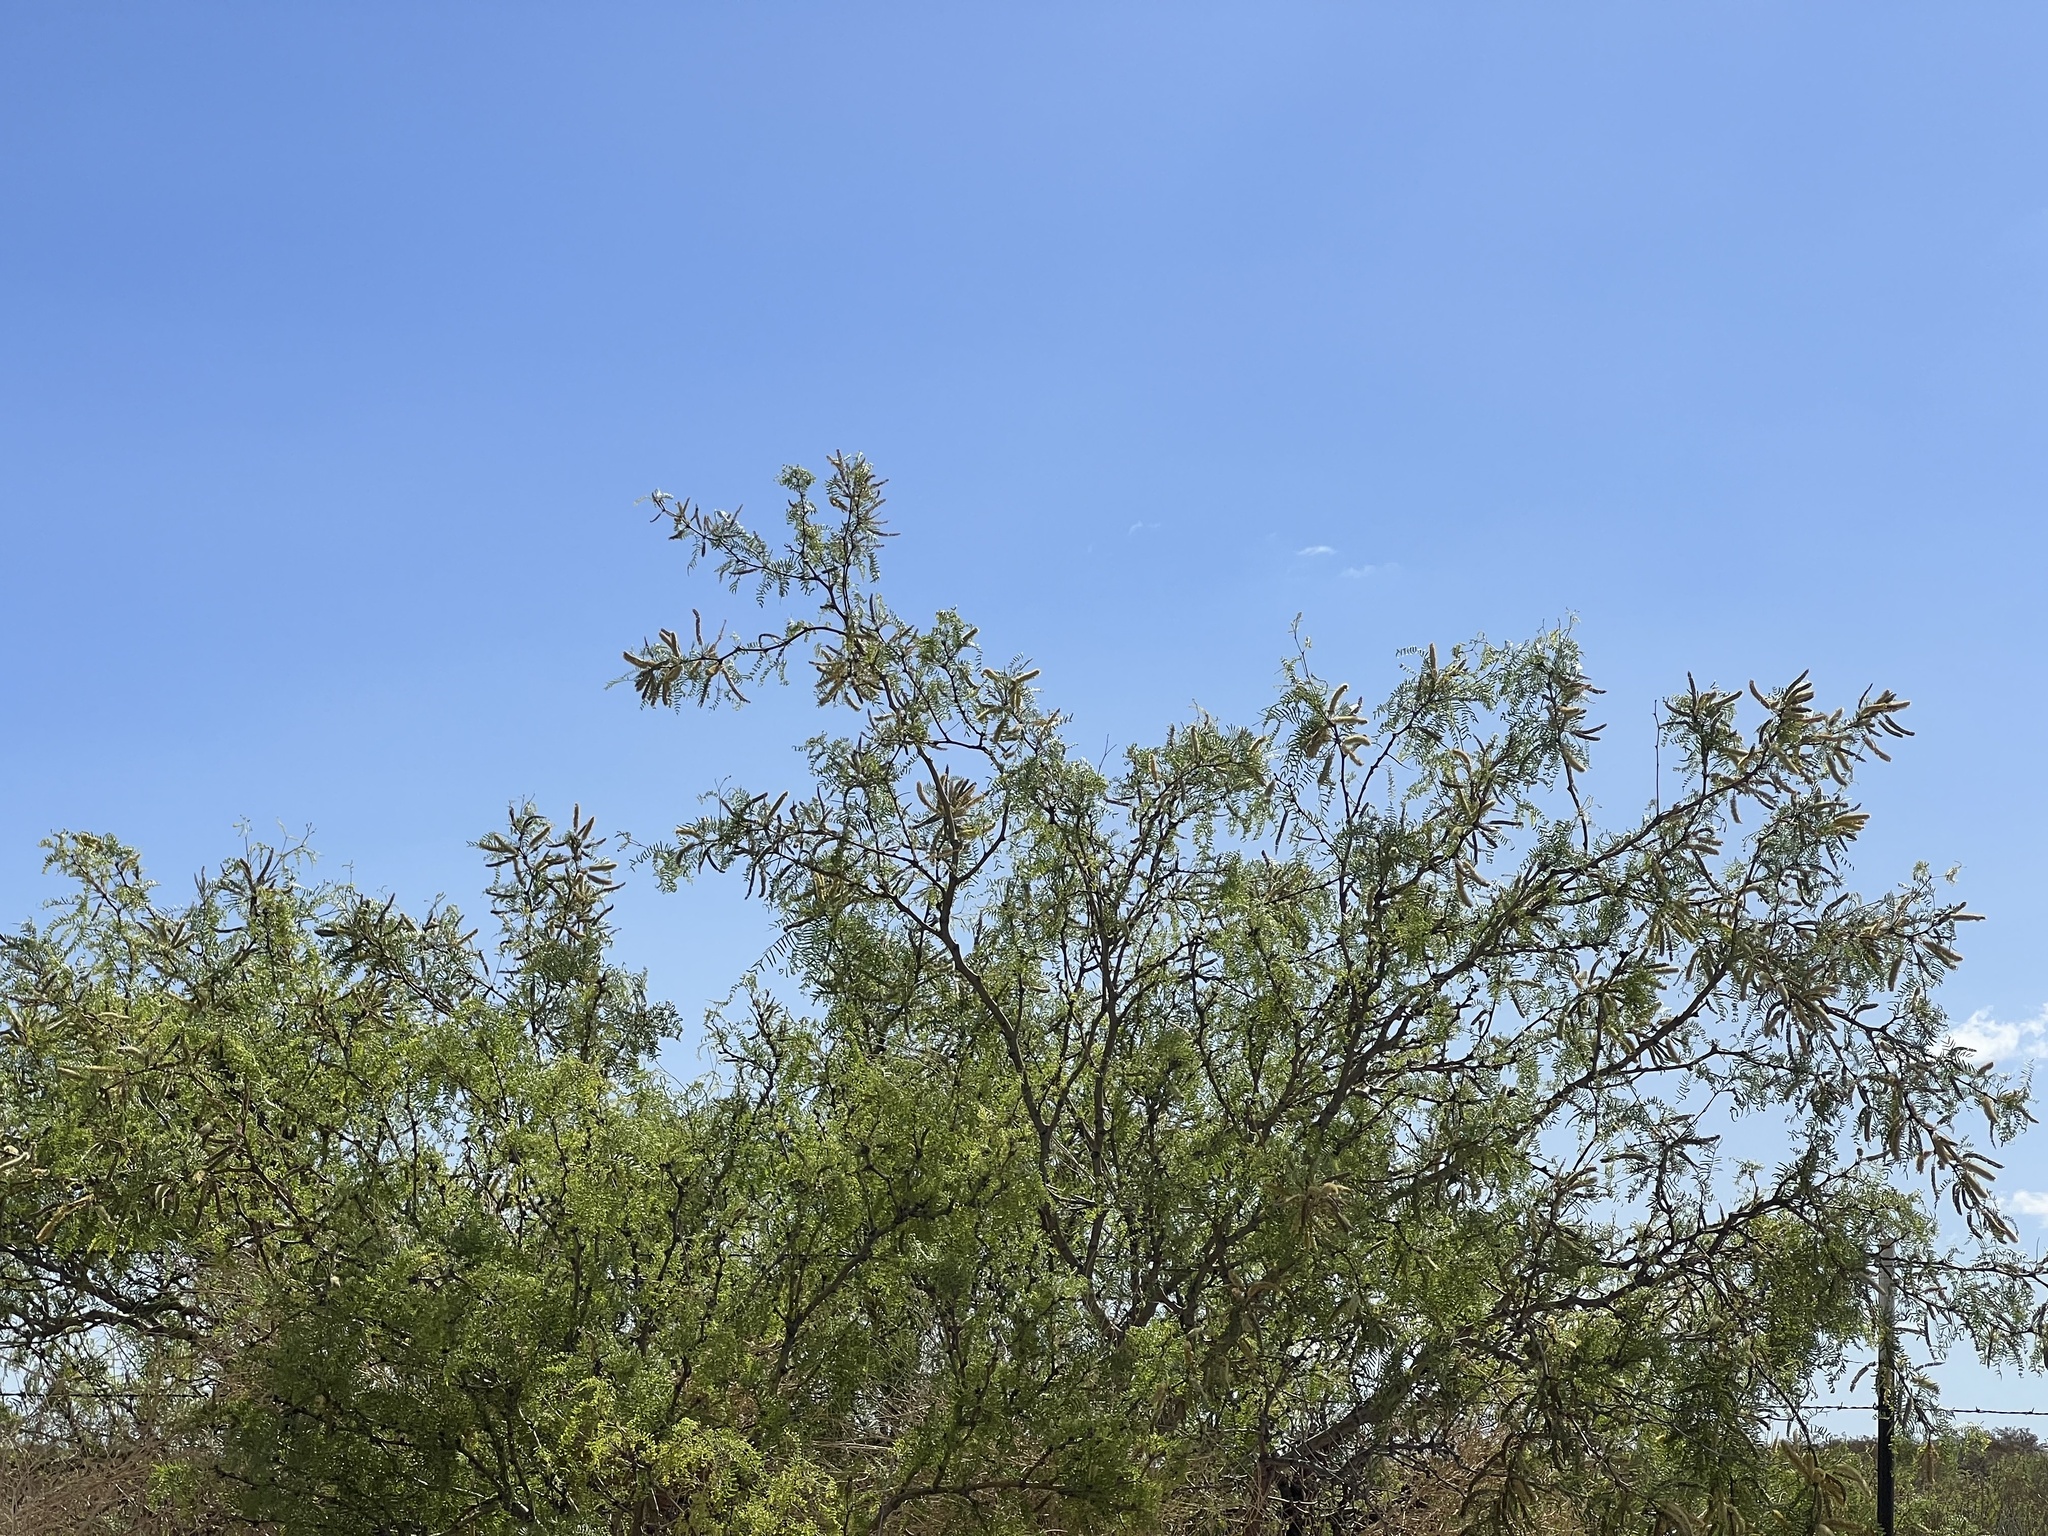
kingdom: Plantae
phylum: Tracheophyta
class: Magnoliopsida
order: Fabales
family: Fabaceae
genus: Prosopis
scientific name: Prosopis glandulosa
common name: Honey mesquite
